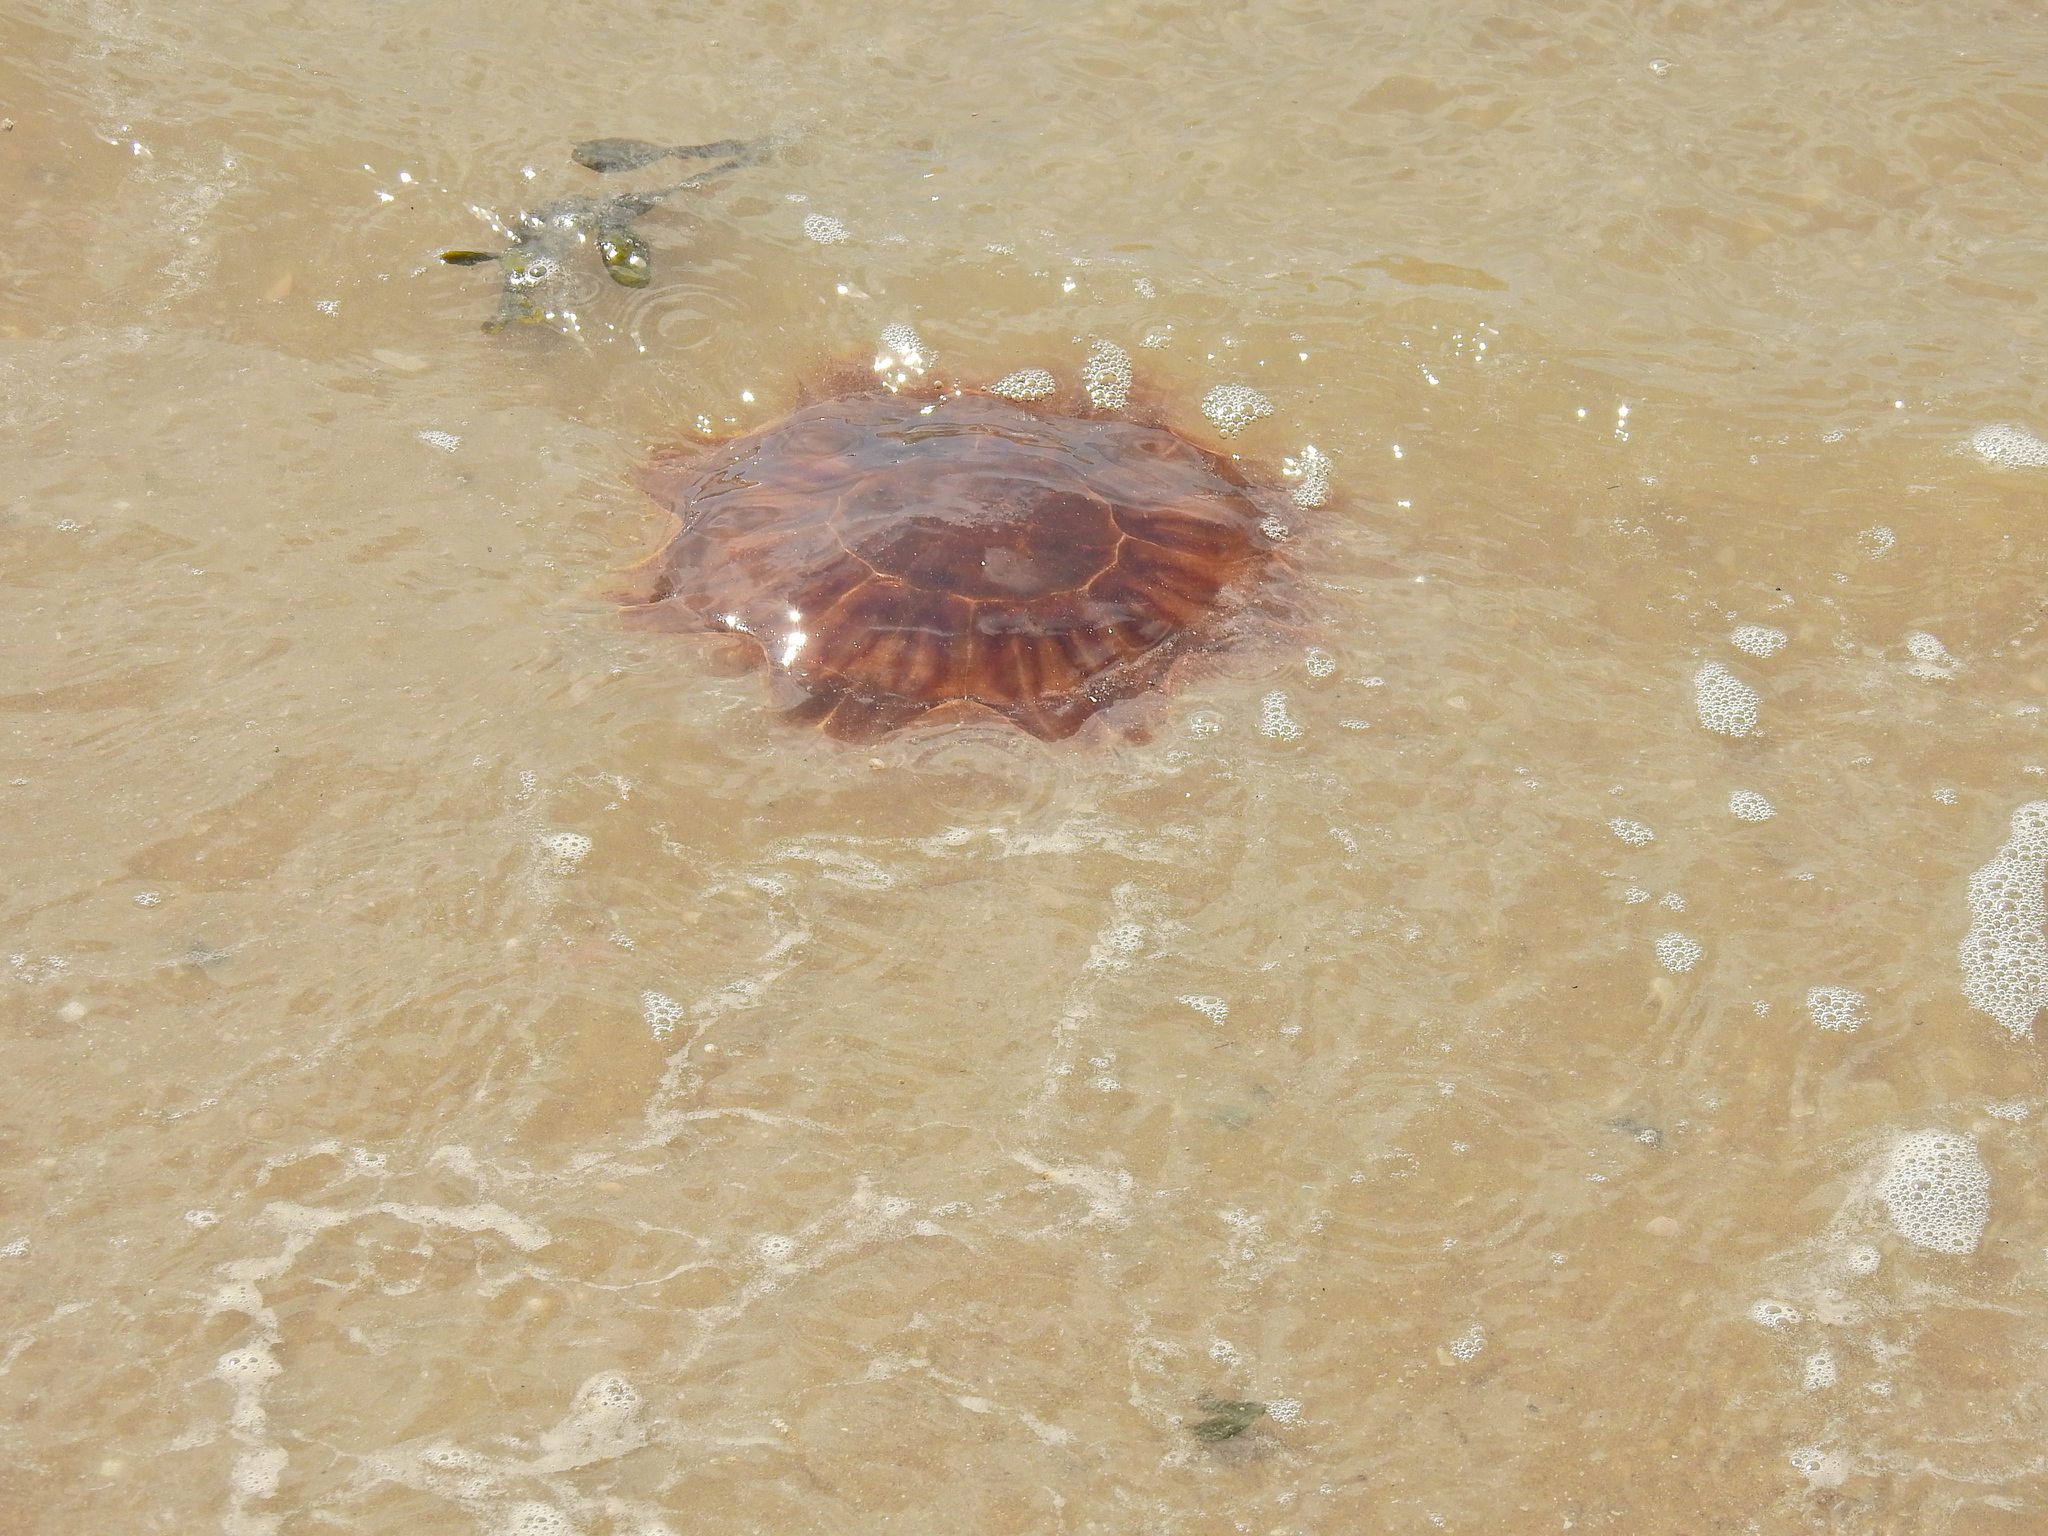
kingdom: Animalia
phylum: Cnidaria
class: Scyphozoa
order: Semaeostomeae
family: Cyaneidae
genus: Cyanea
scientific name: Cyanea capillata
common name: Lion's mane jellyfish
